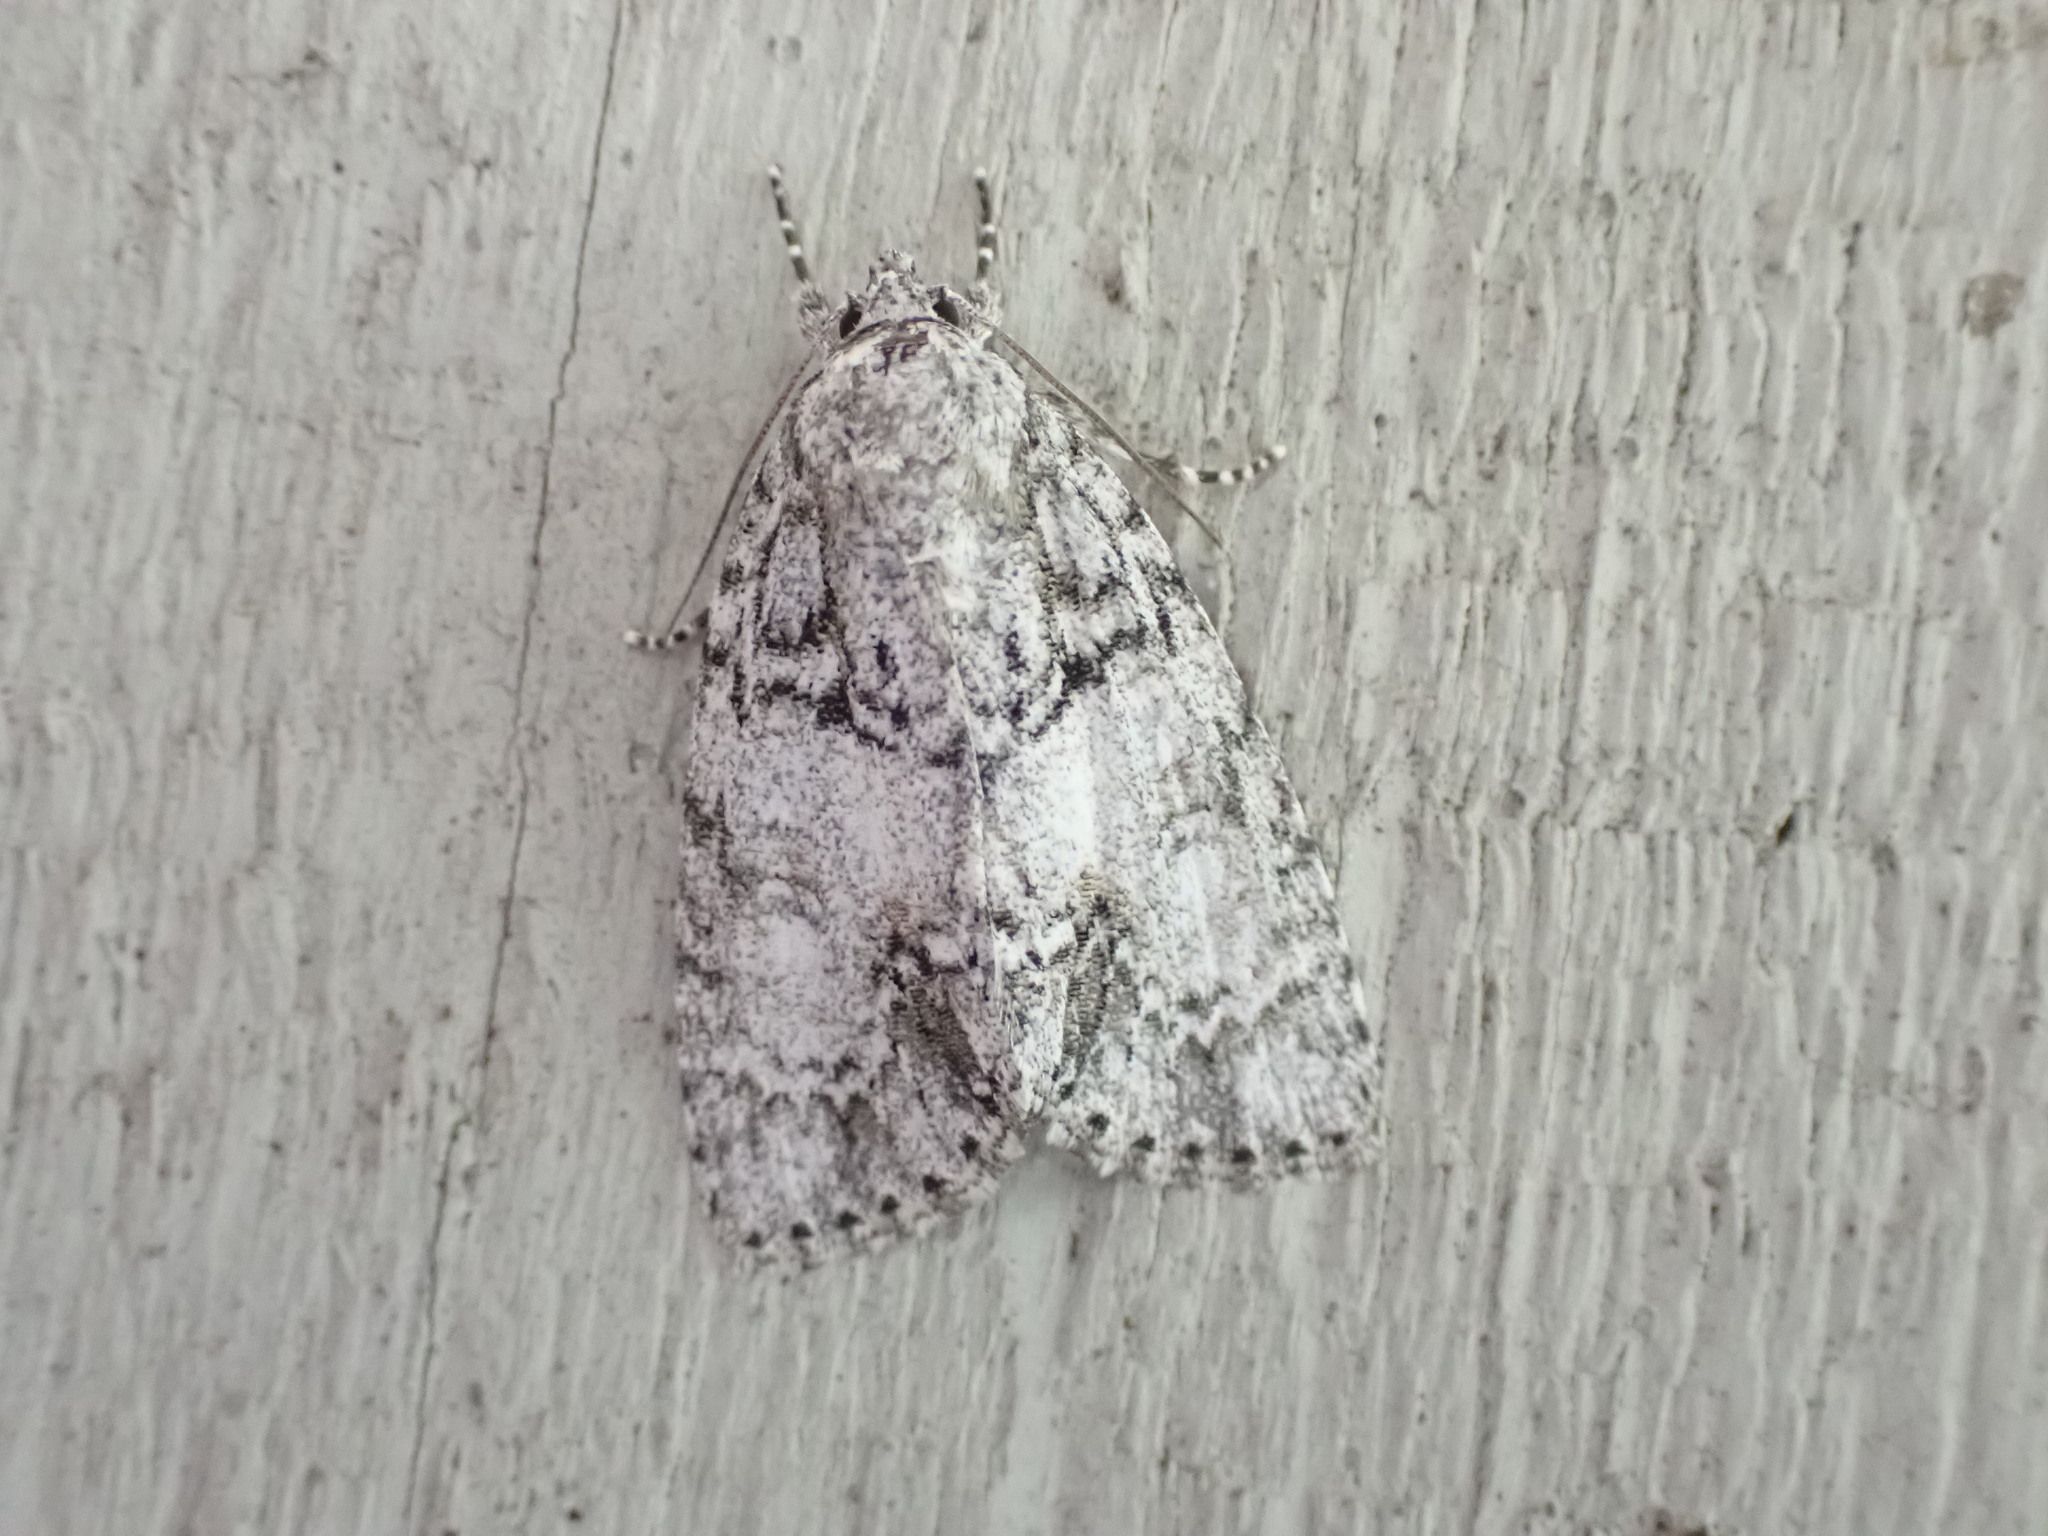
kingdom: Animalia
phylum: Arthropoda
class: Insecta
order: Lepidoptera
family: Noctuidae
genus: Acronicta
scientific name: Acronicta retardata
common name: Maple dagger
